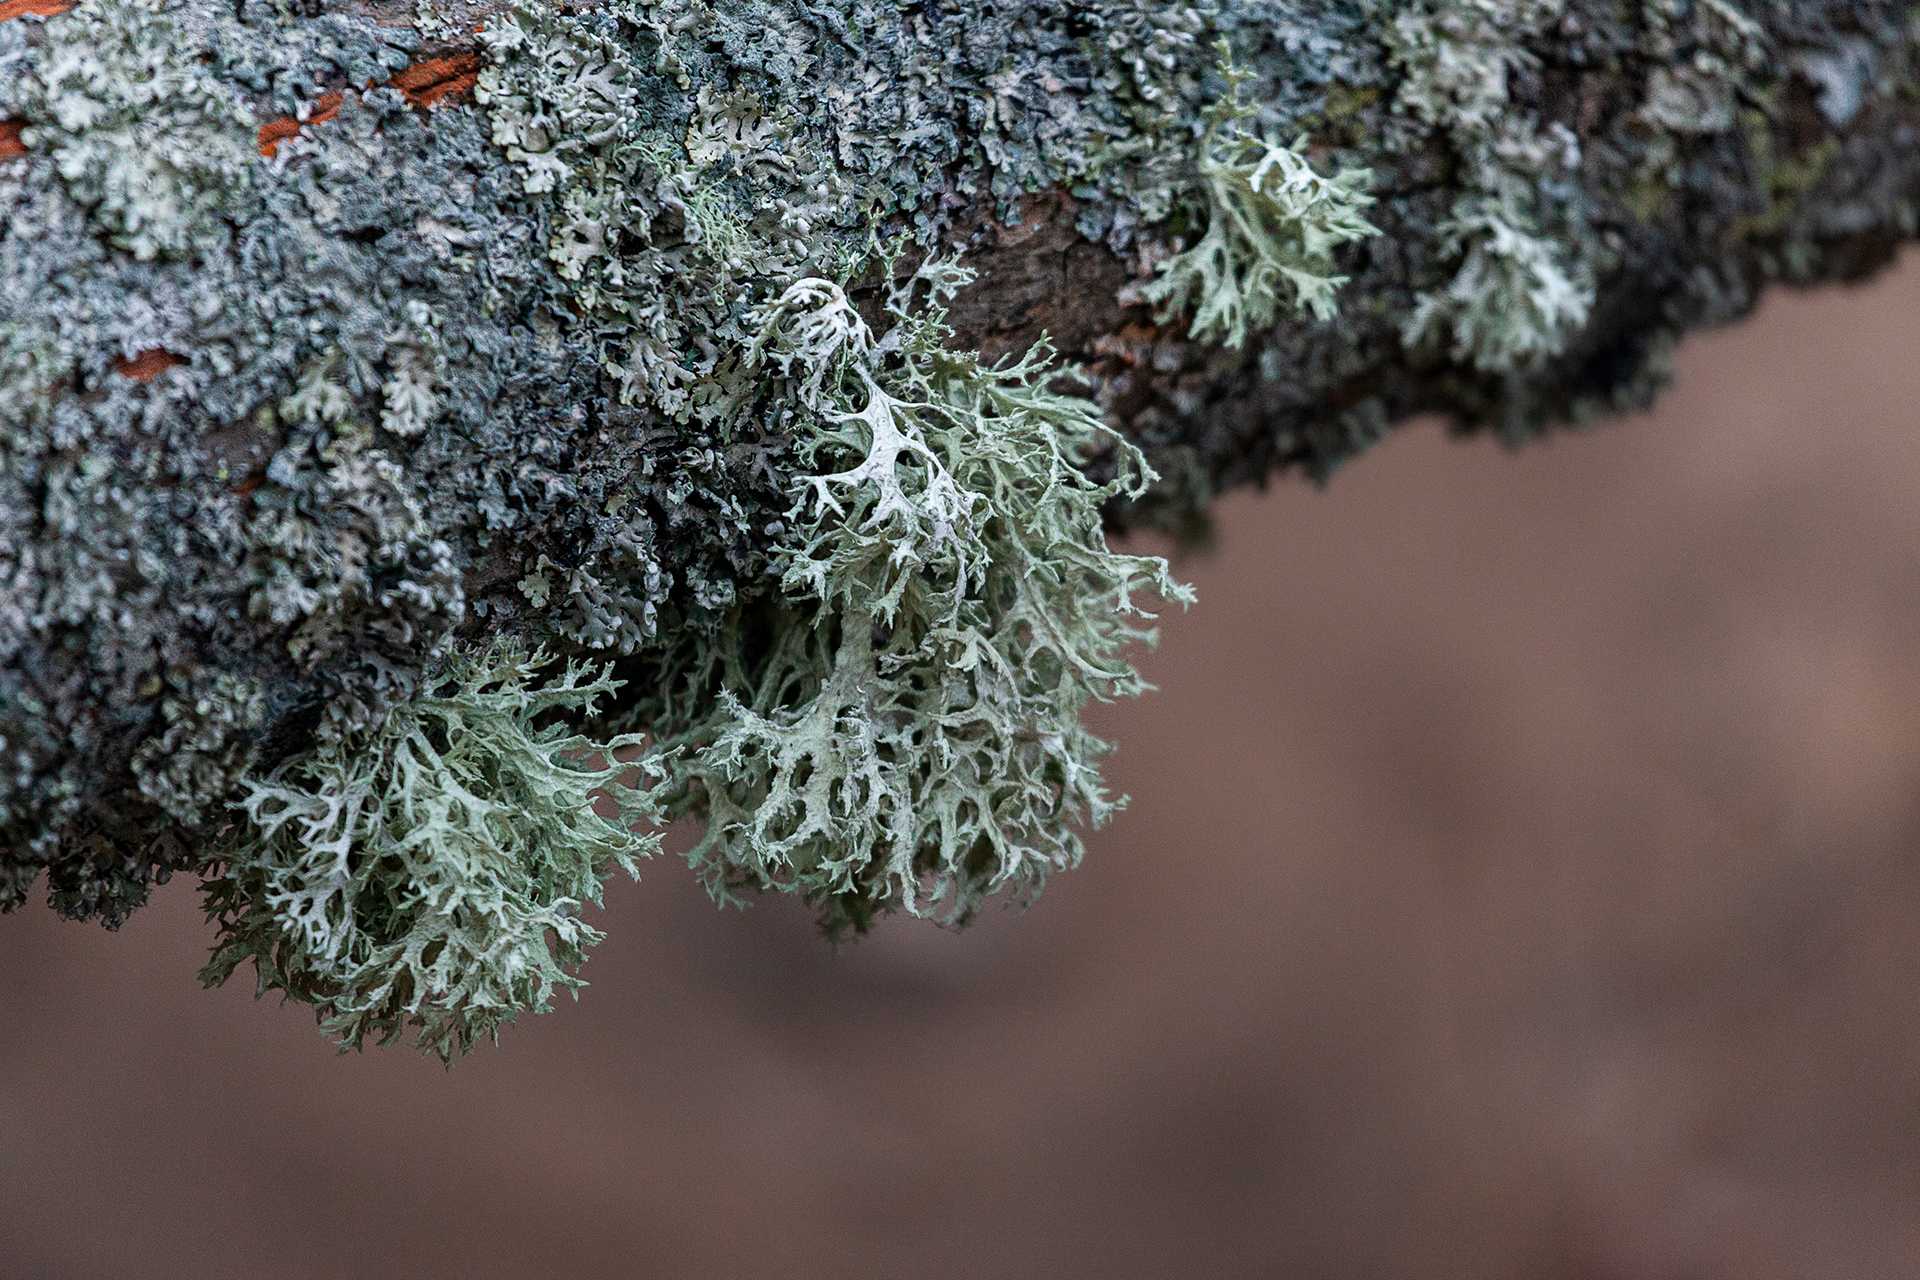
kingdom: Fungi
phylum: Ascomycota
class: Lecanoromycetes
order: Lecanorales
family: Parmeliaceae
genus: Evernia
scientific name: Evernia prunastri
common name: Oak moss
